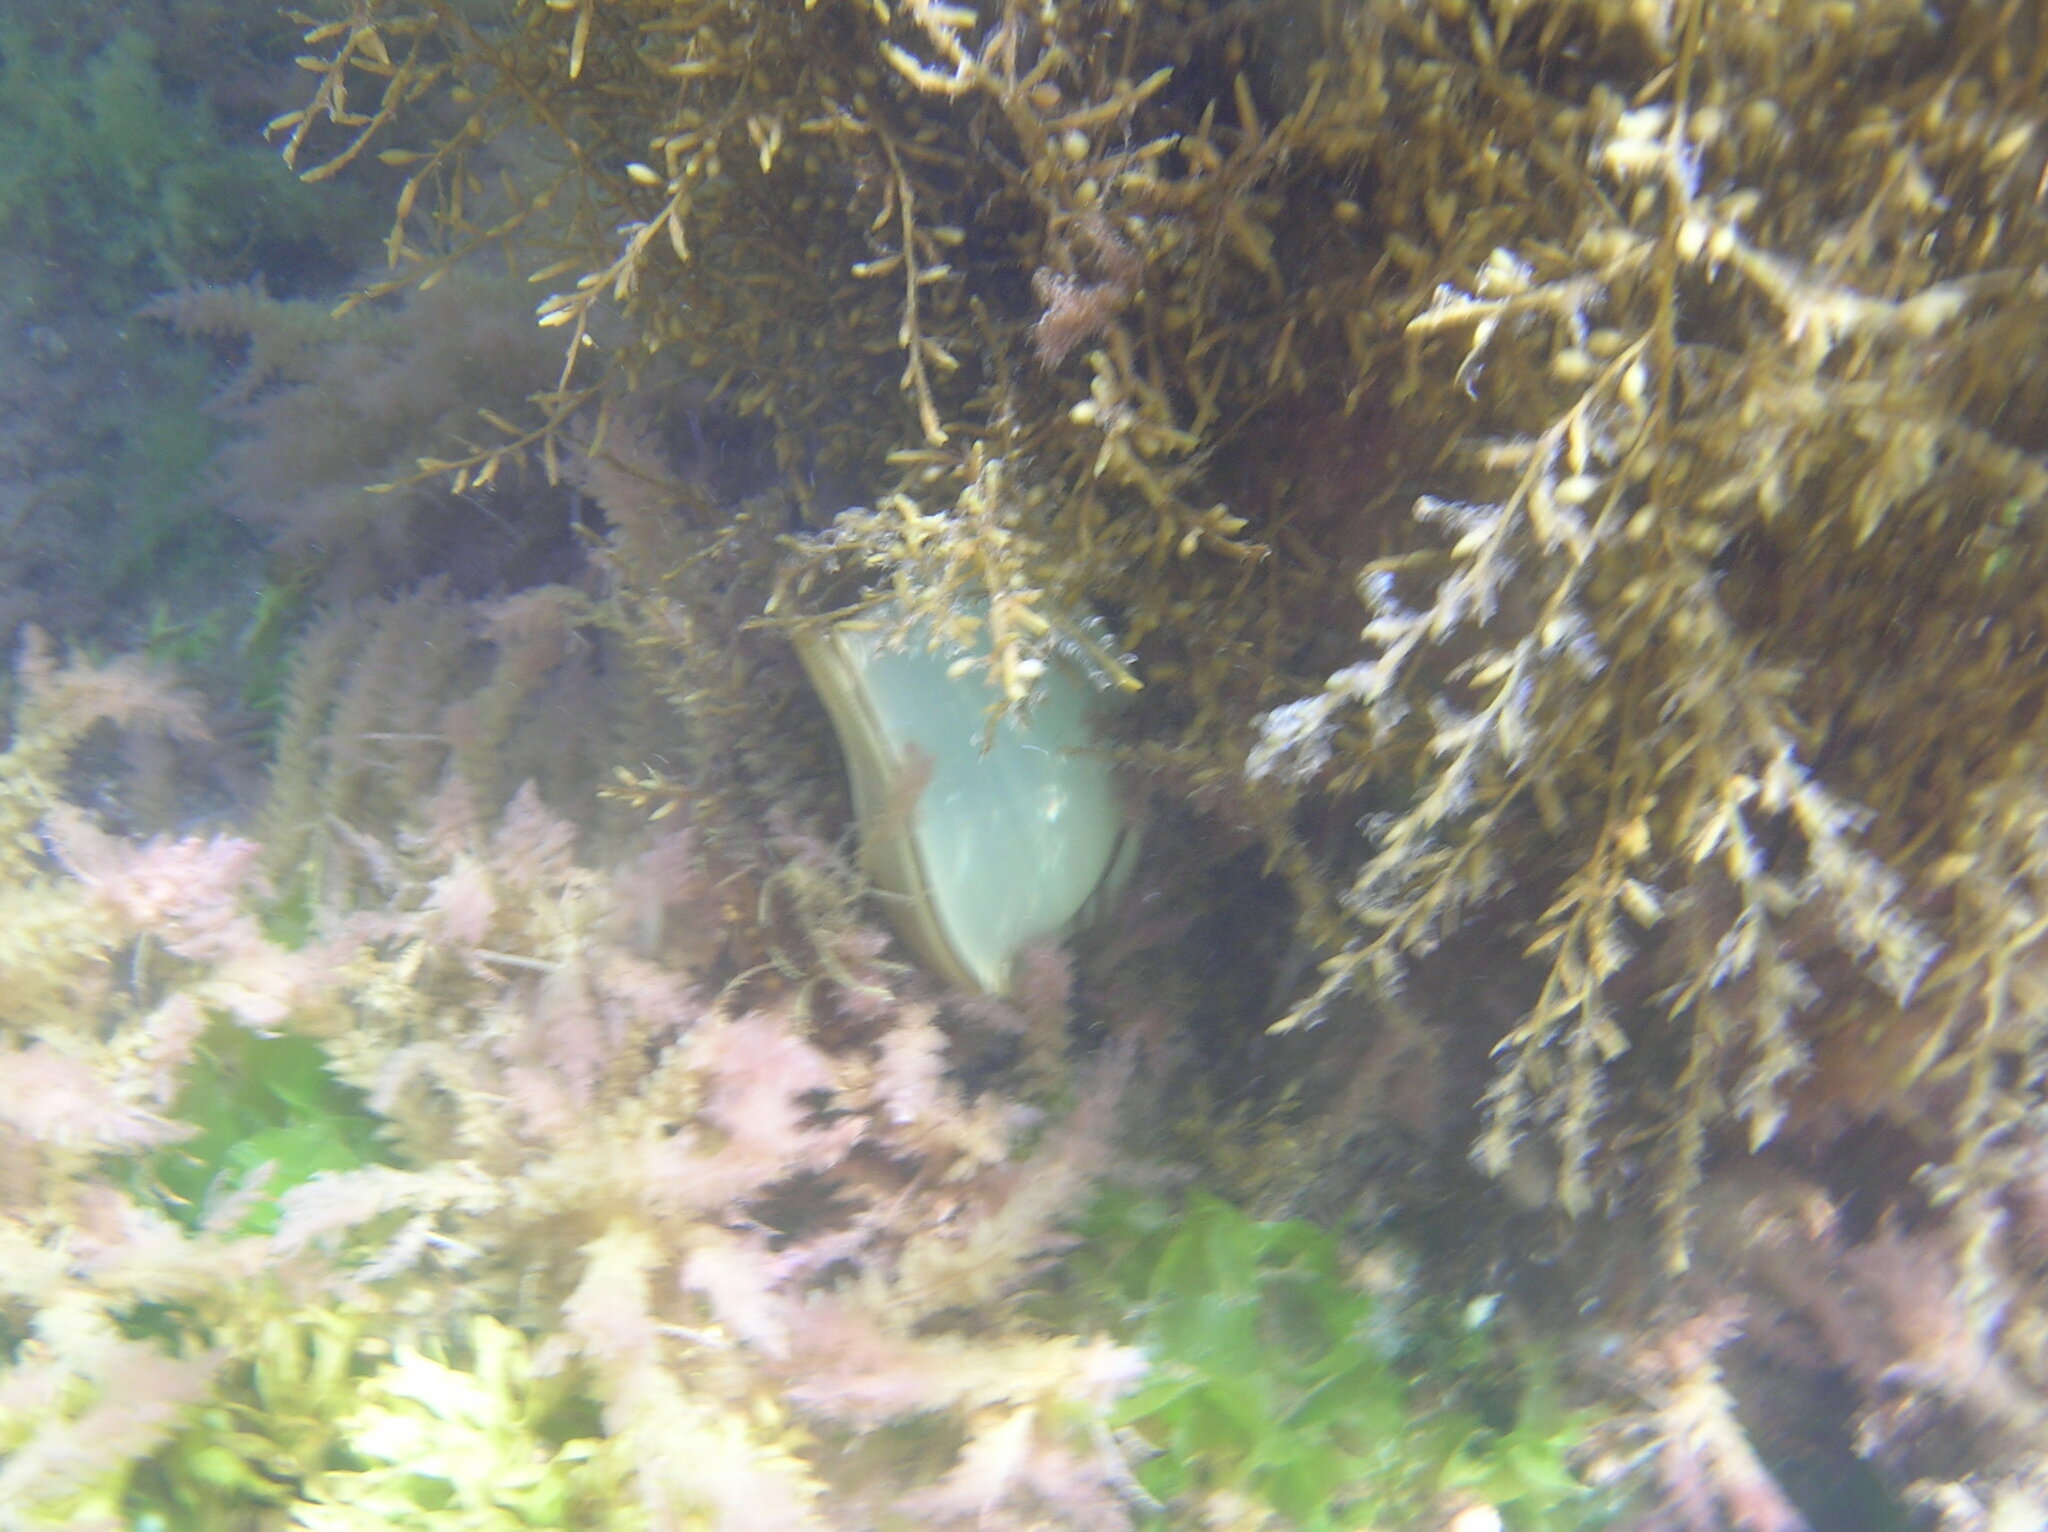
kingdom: Animalia
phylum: Chordata
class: Elasmobranchii
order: Carcharhiniformes
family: Scyliorhinidae
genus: Scyliorhinus
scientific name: Scyliorhinus stellaris
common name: Nursehound
